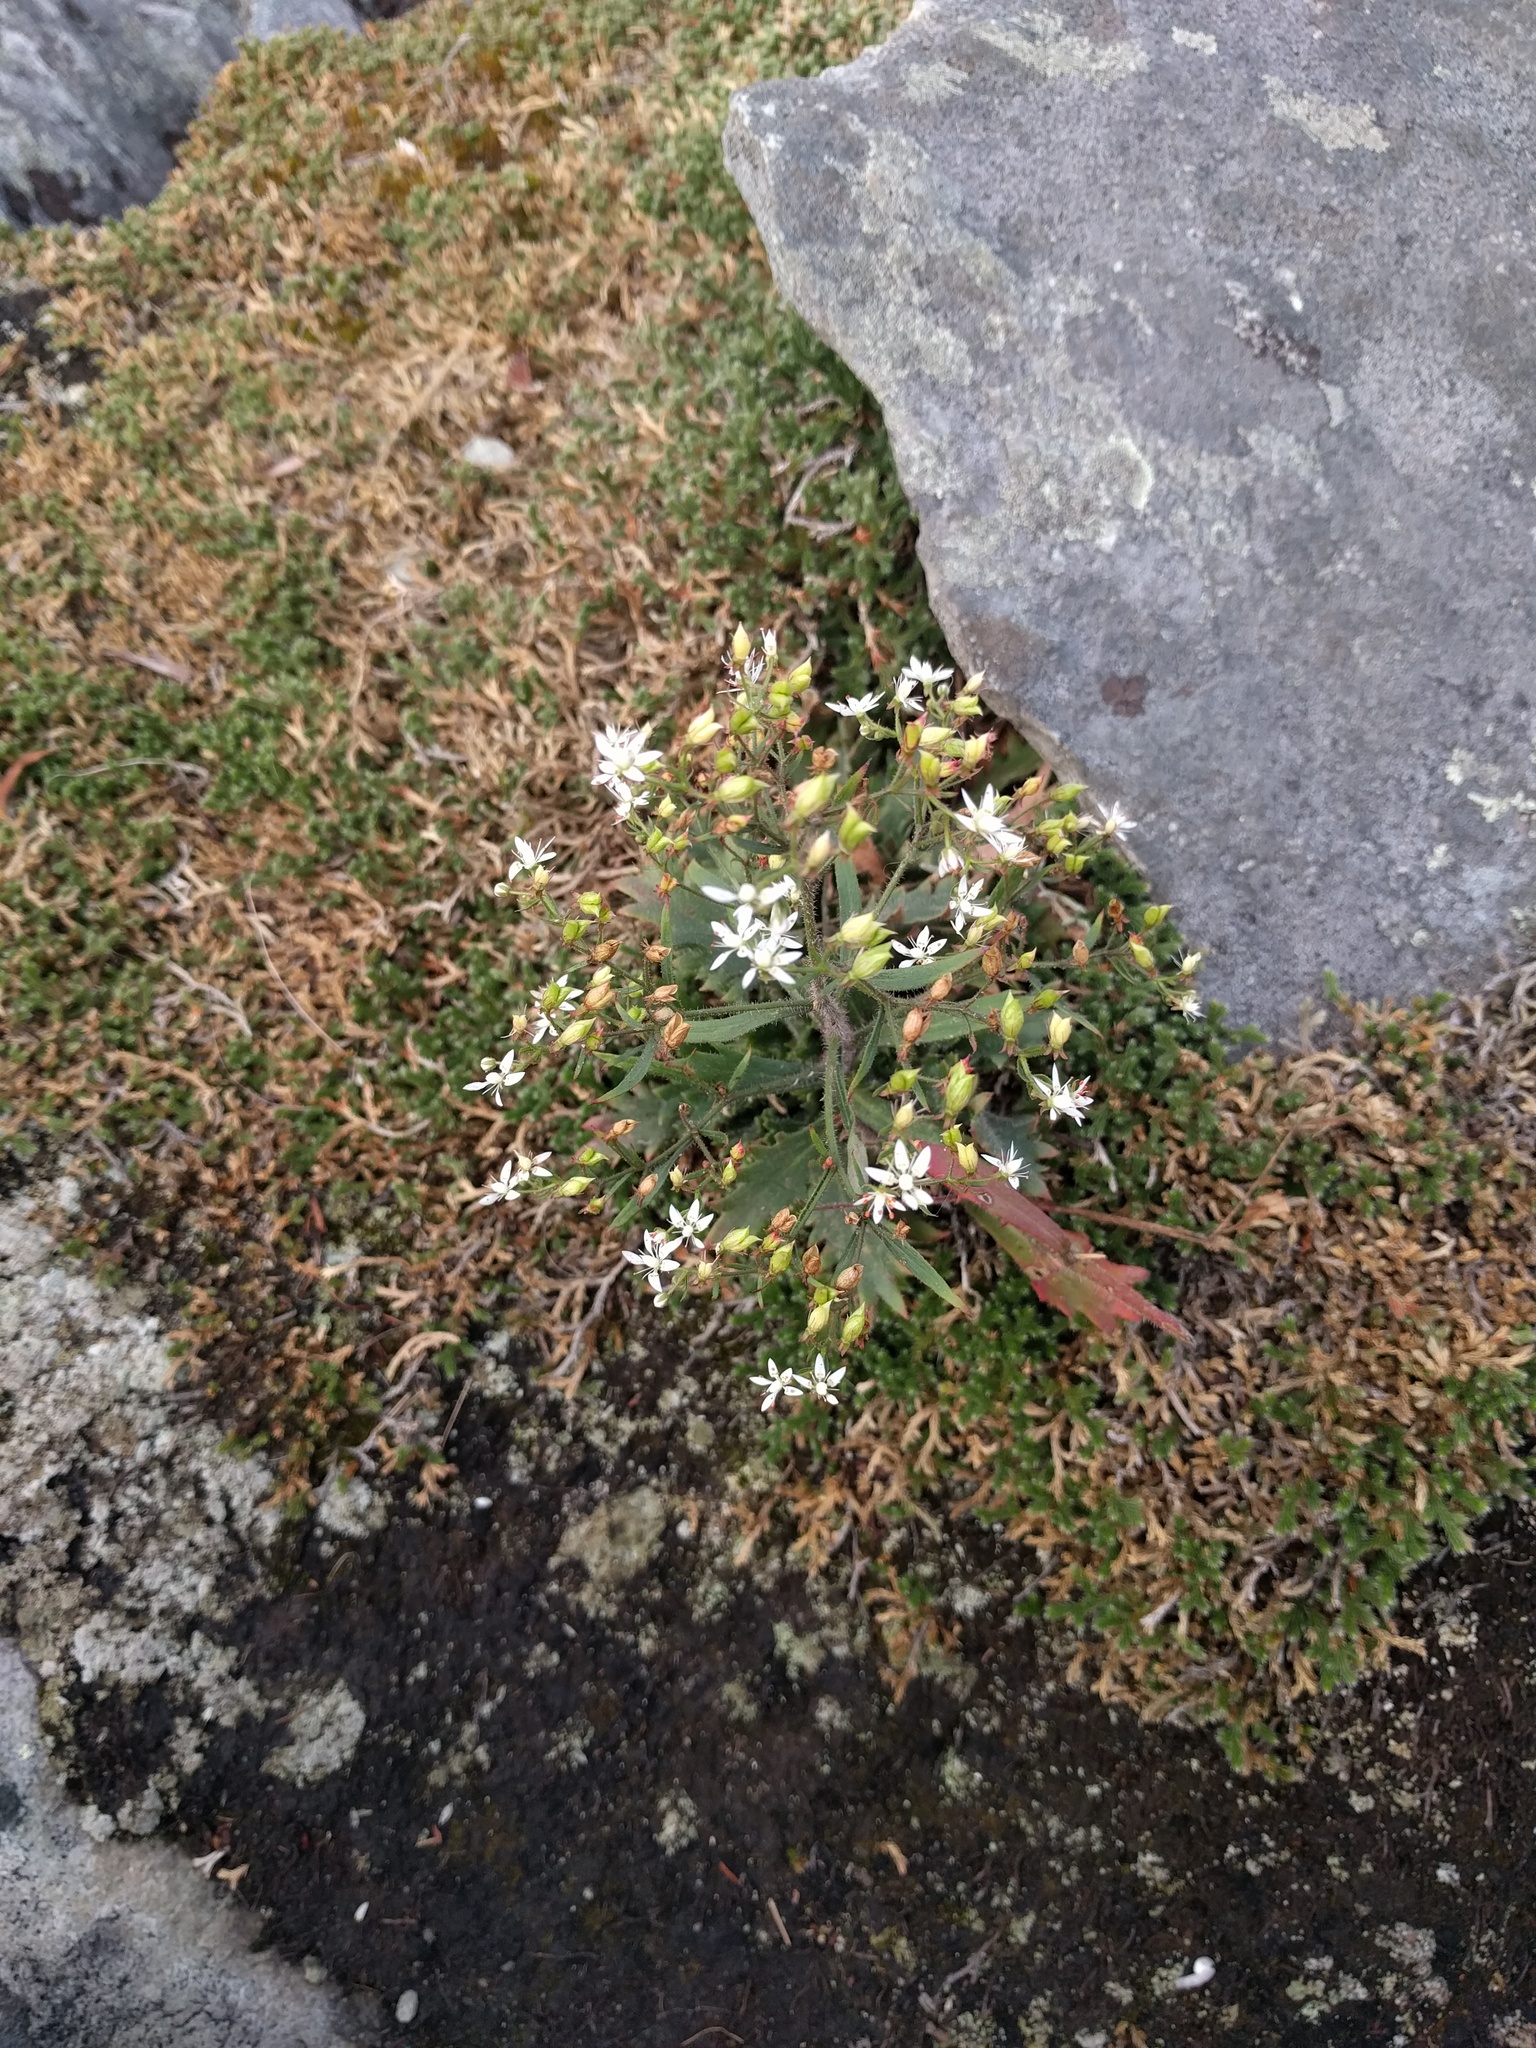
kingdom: Plantae
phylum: Tracheophyta
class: Magnoliopsida
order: Saxifragales
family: Saxifragaceae
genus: Micranthes
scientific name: Micranthes petiolaris
